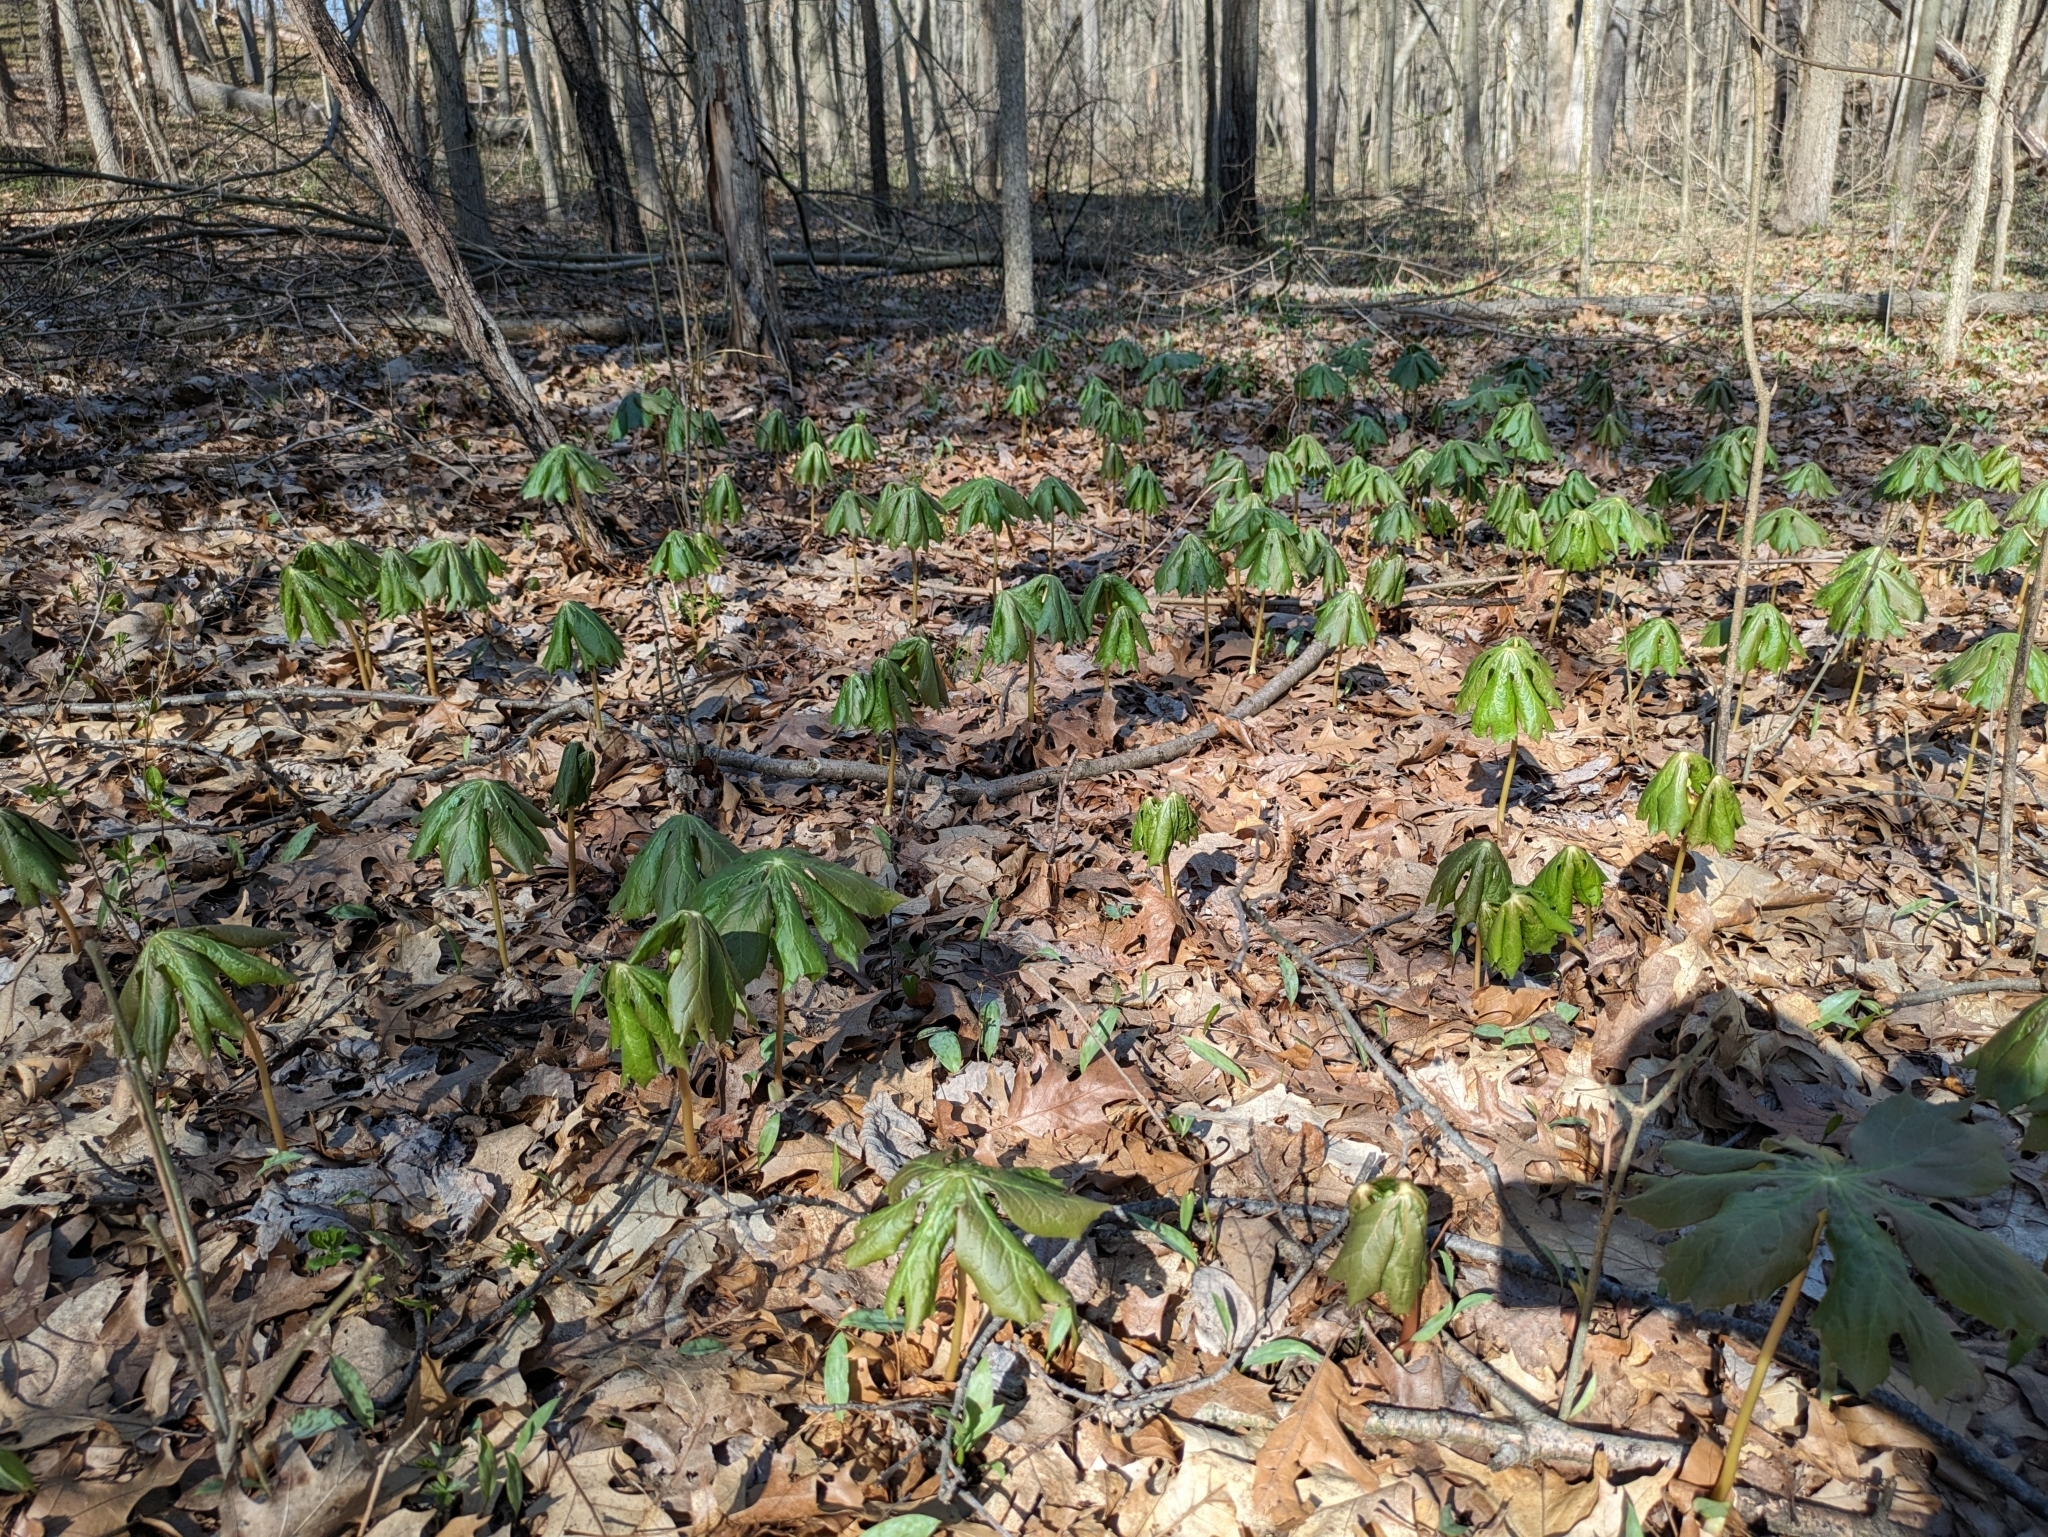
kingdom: Plantae
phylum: Tracheophyta
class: Magnoliopsida
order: Ranunculales
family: Berberidaceae
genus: Podophyllum
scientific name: Podophyllum peltatum
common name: Wild mandrake
